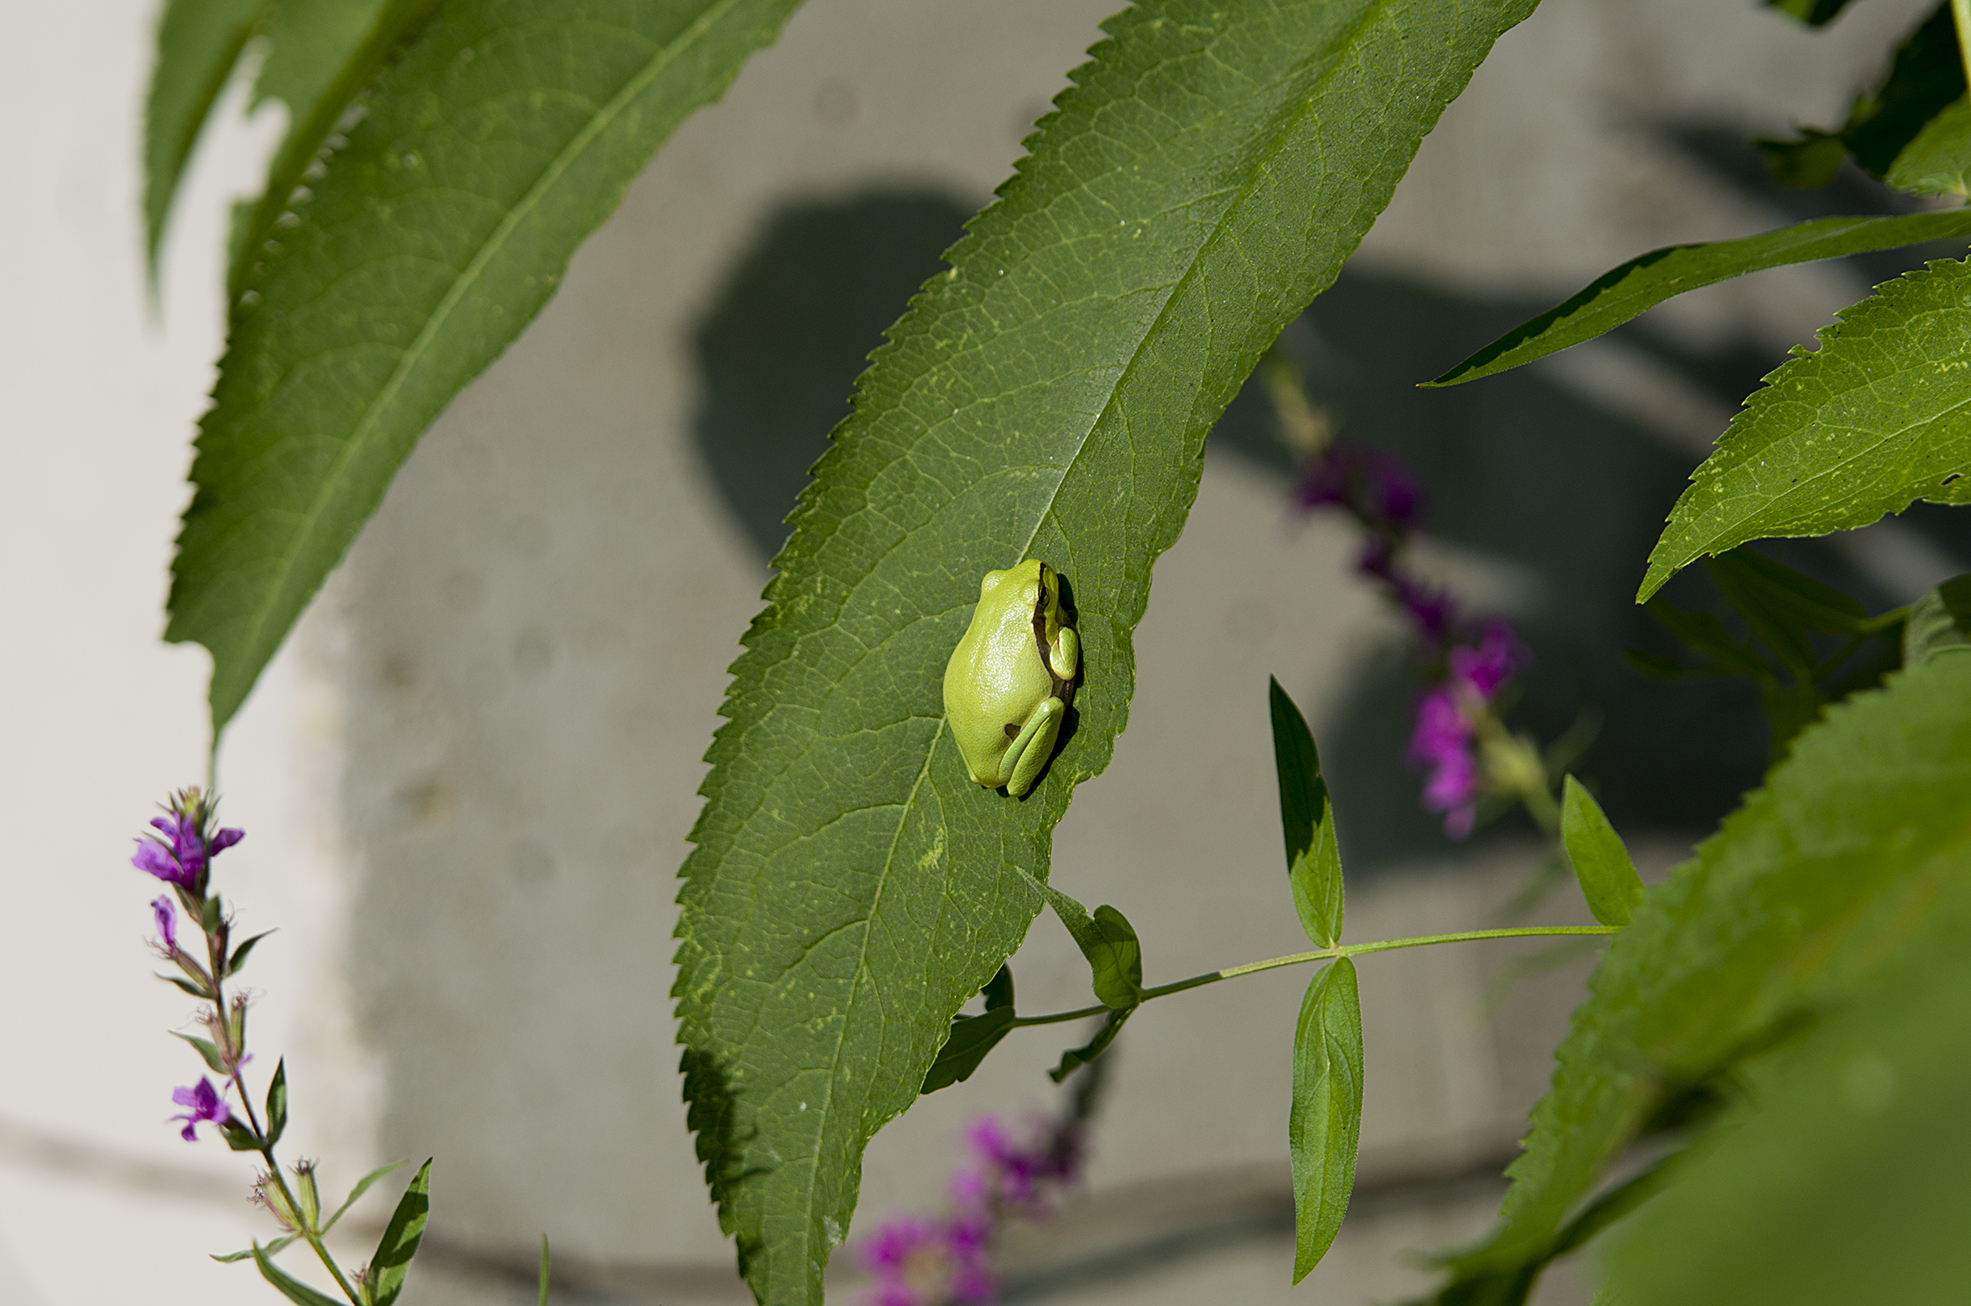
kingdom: Animalia
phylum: Chordata
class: Amphibia
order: Anura
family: Hylidae
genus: Hyla
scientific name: Hyla orientalis
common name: Caucasian treefrog
